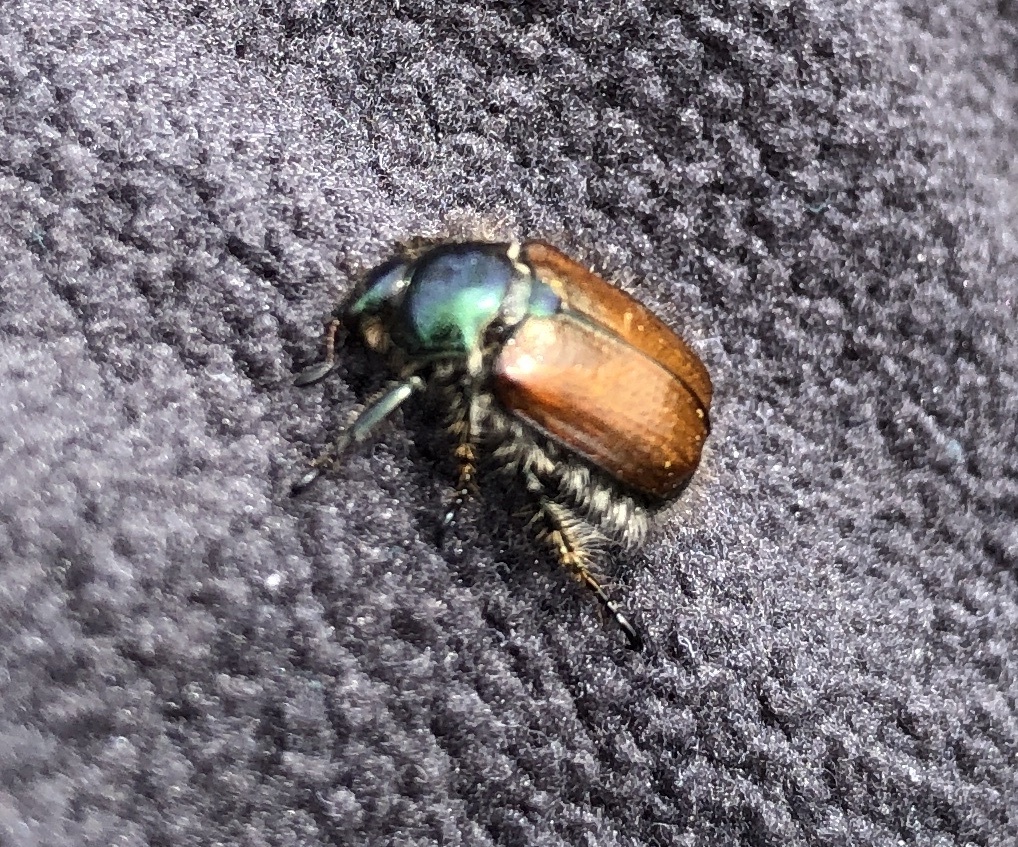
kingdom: Animalia
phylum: Arthropoda
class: Insecta
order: Coleoptera
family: Scarabaeidae
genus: Phyllopertha
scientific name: Phyllopertha horticola
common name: Garden chafer
